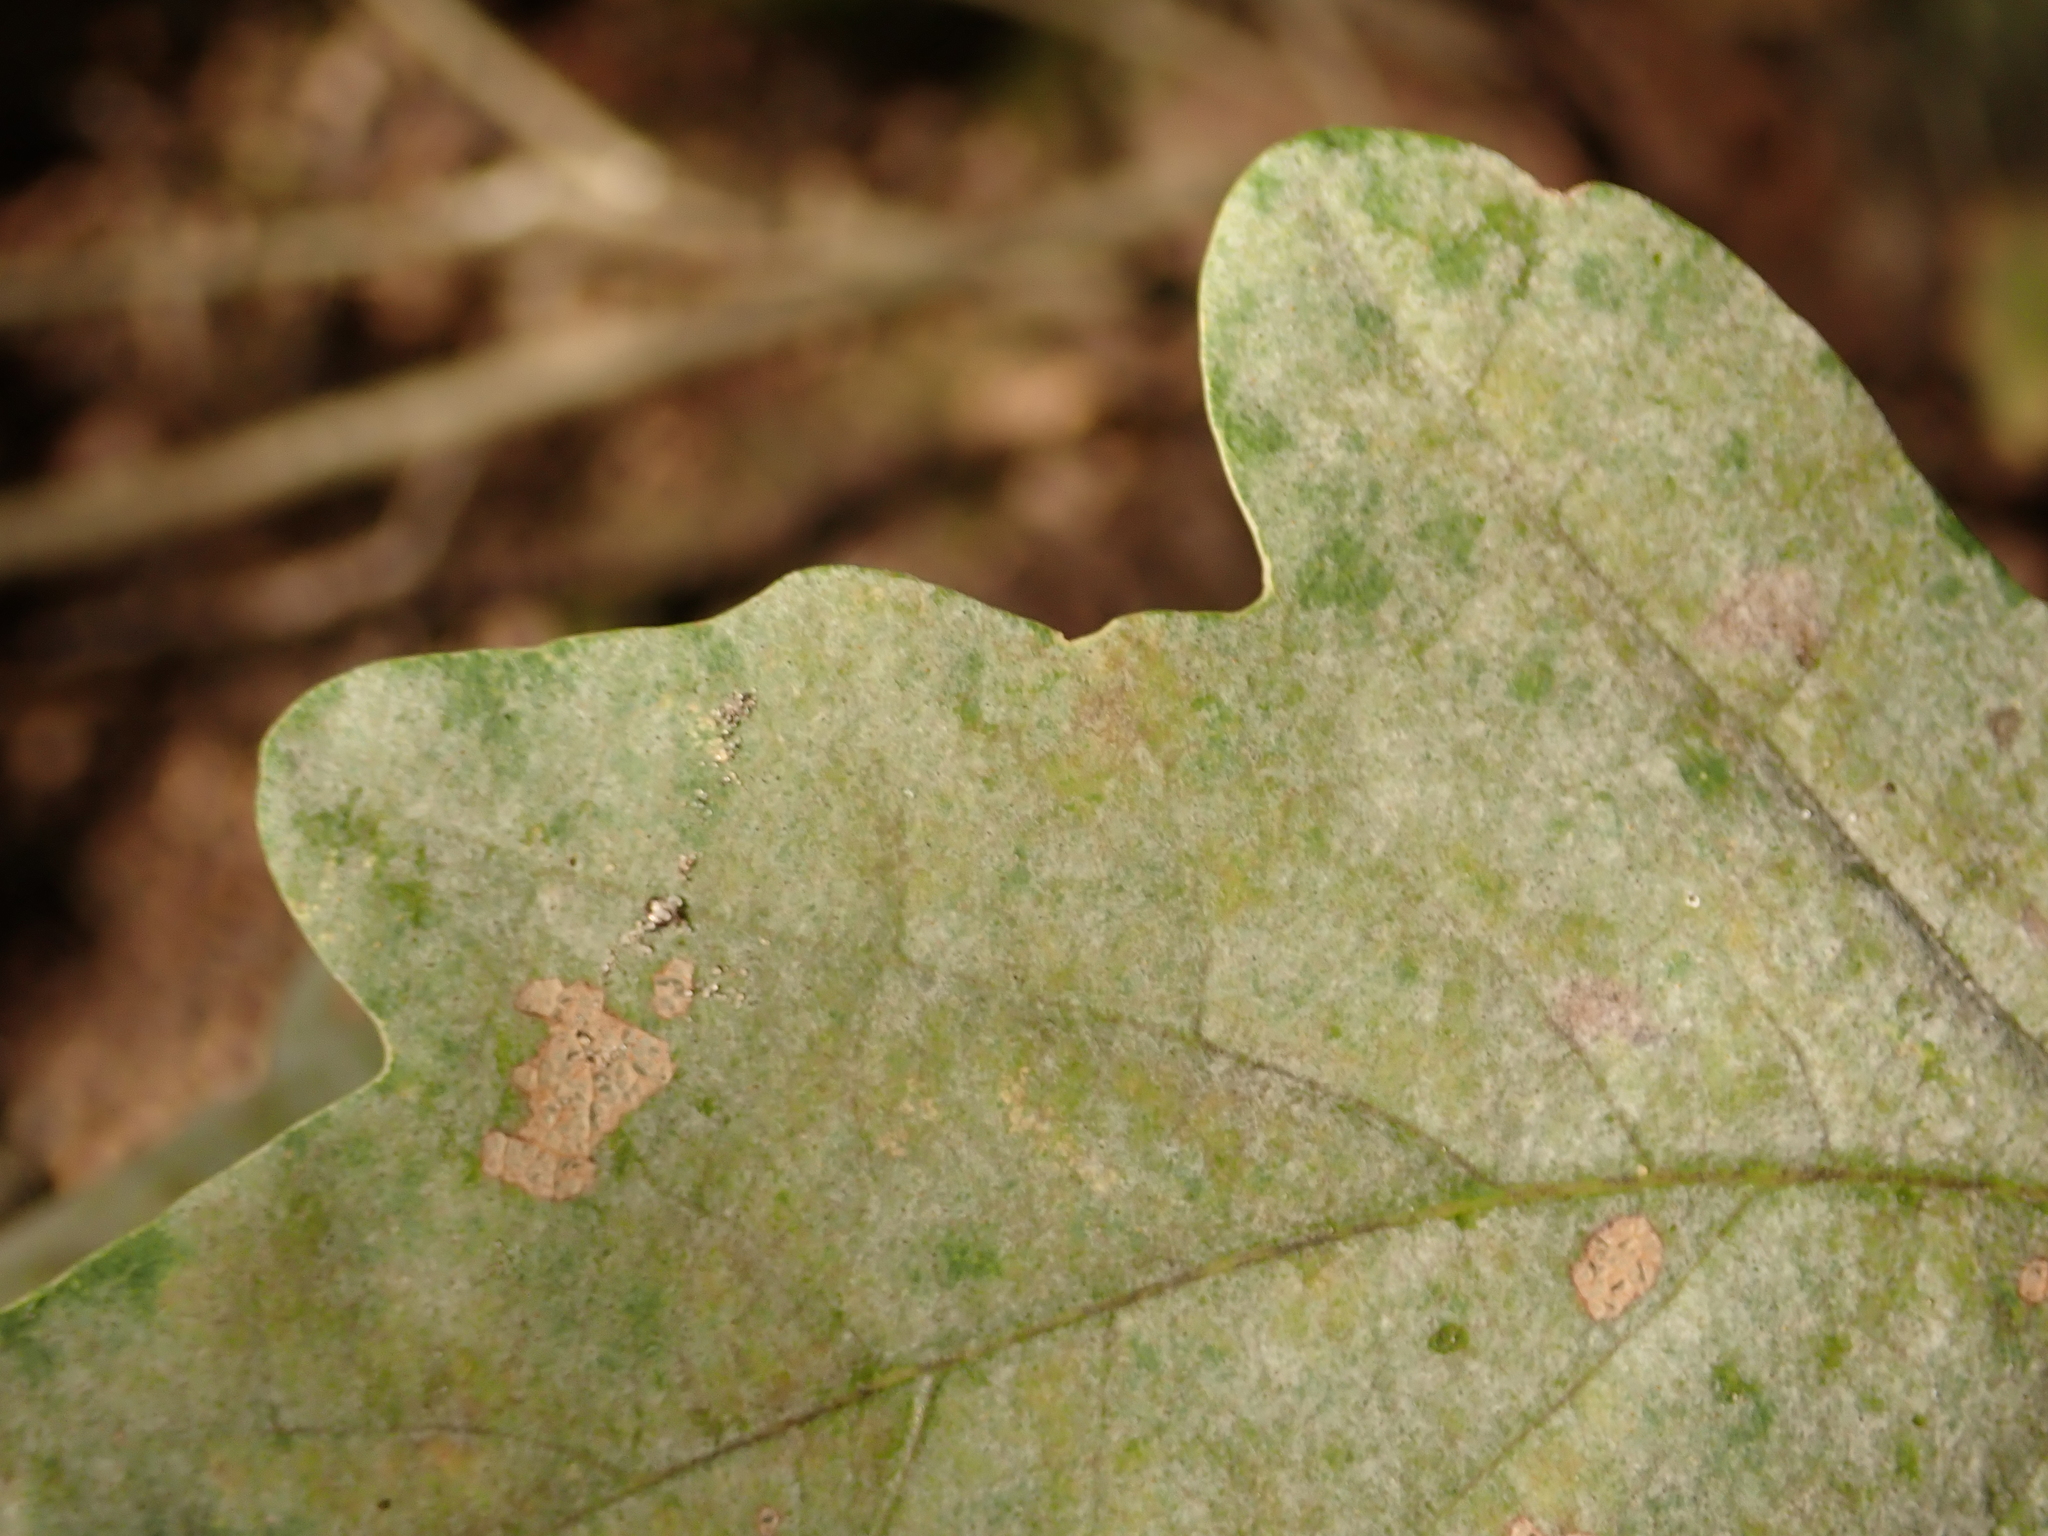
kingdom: Fungi
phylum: Ascomycota
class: Leotiomycetes
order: Helotiales
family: Erysiphaceae
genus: Erysiphe
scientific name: Erysiphe
